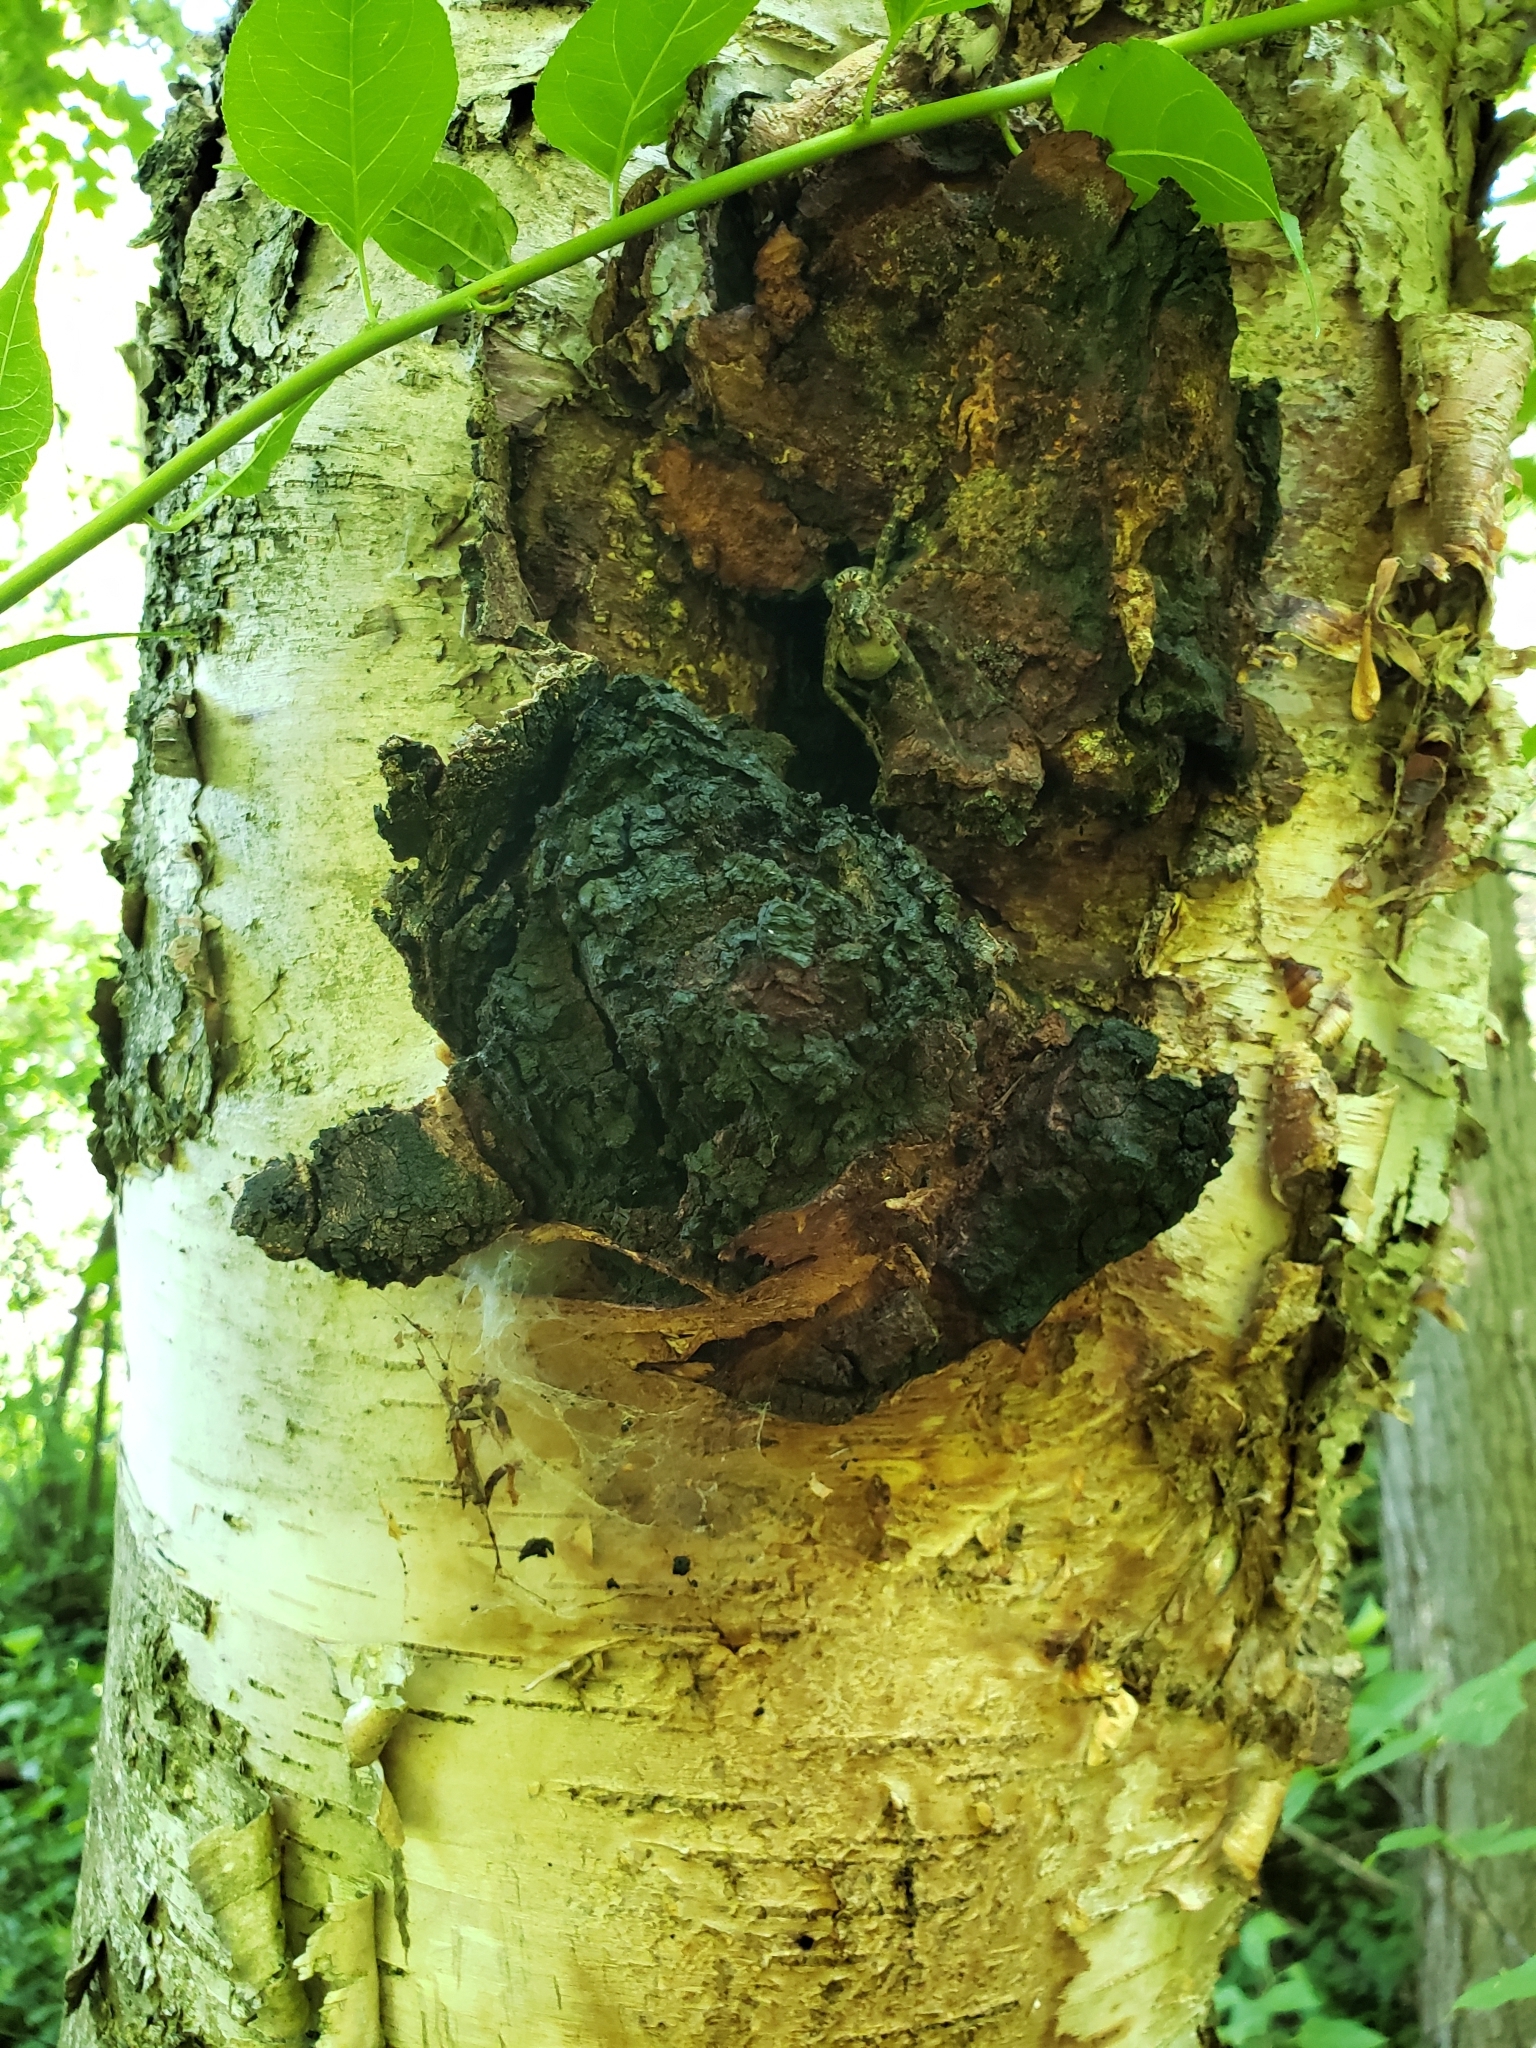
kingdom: Fungi
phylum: Basidiomycota
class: Agaricomycetes
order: Hymenochaetales
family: Hymenochaetaceae
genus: Inonotus
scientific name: Inonotus obliquus
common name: Chaga
